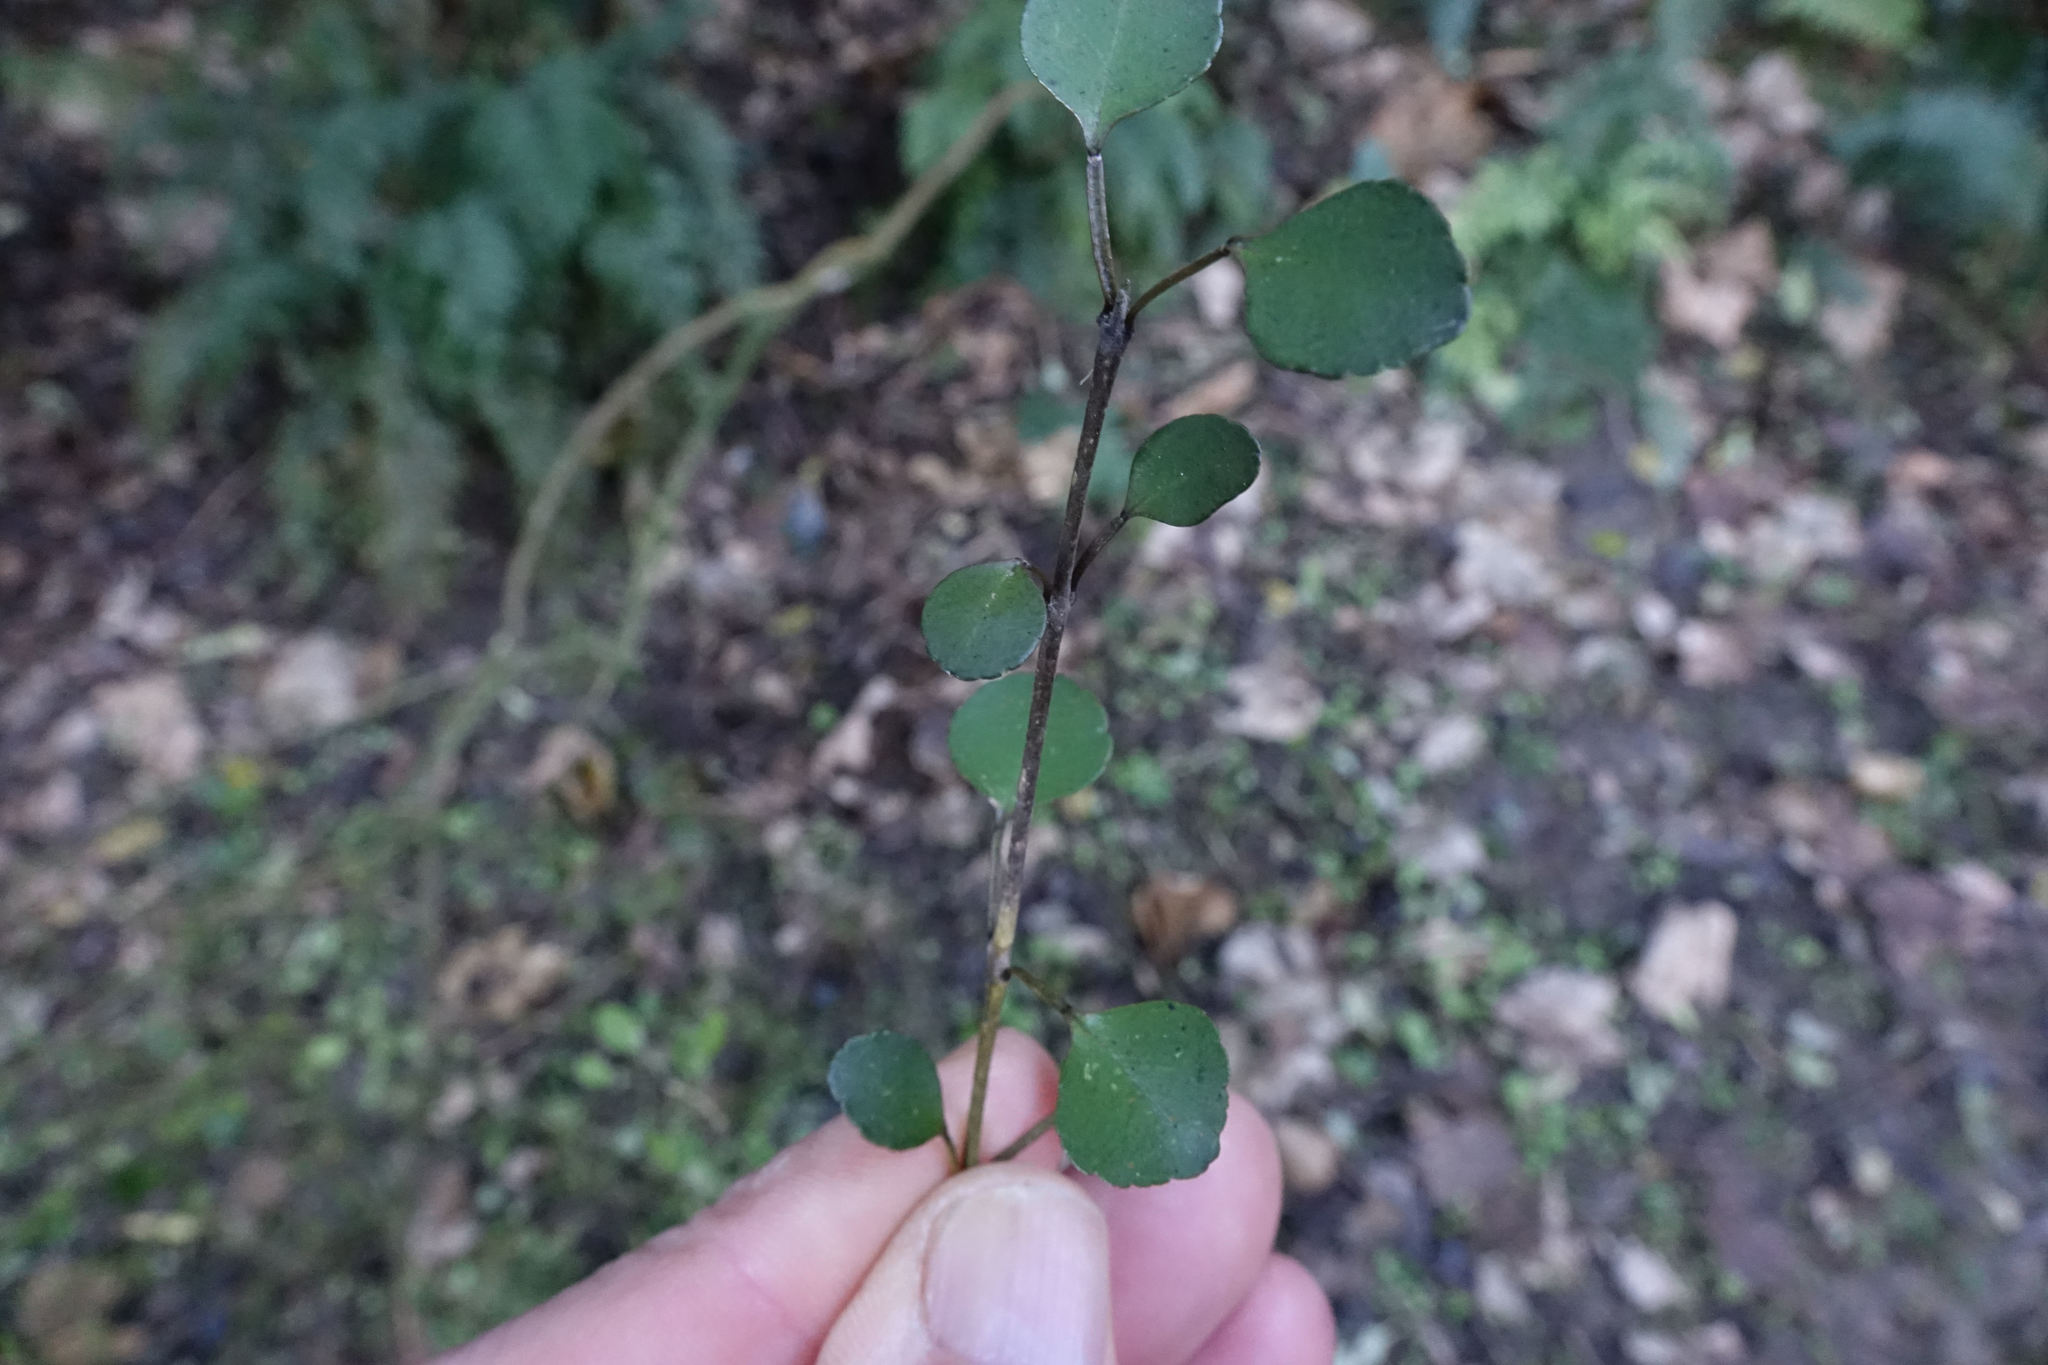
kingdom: Plantae
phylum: Tracheophyta
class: Magnoliopsida
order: Sapindales
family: Rutaceae
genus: Melicope
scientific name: Melicope simplex
